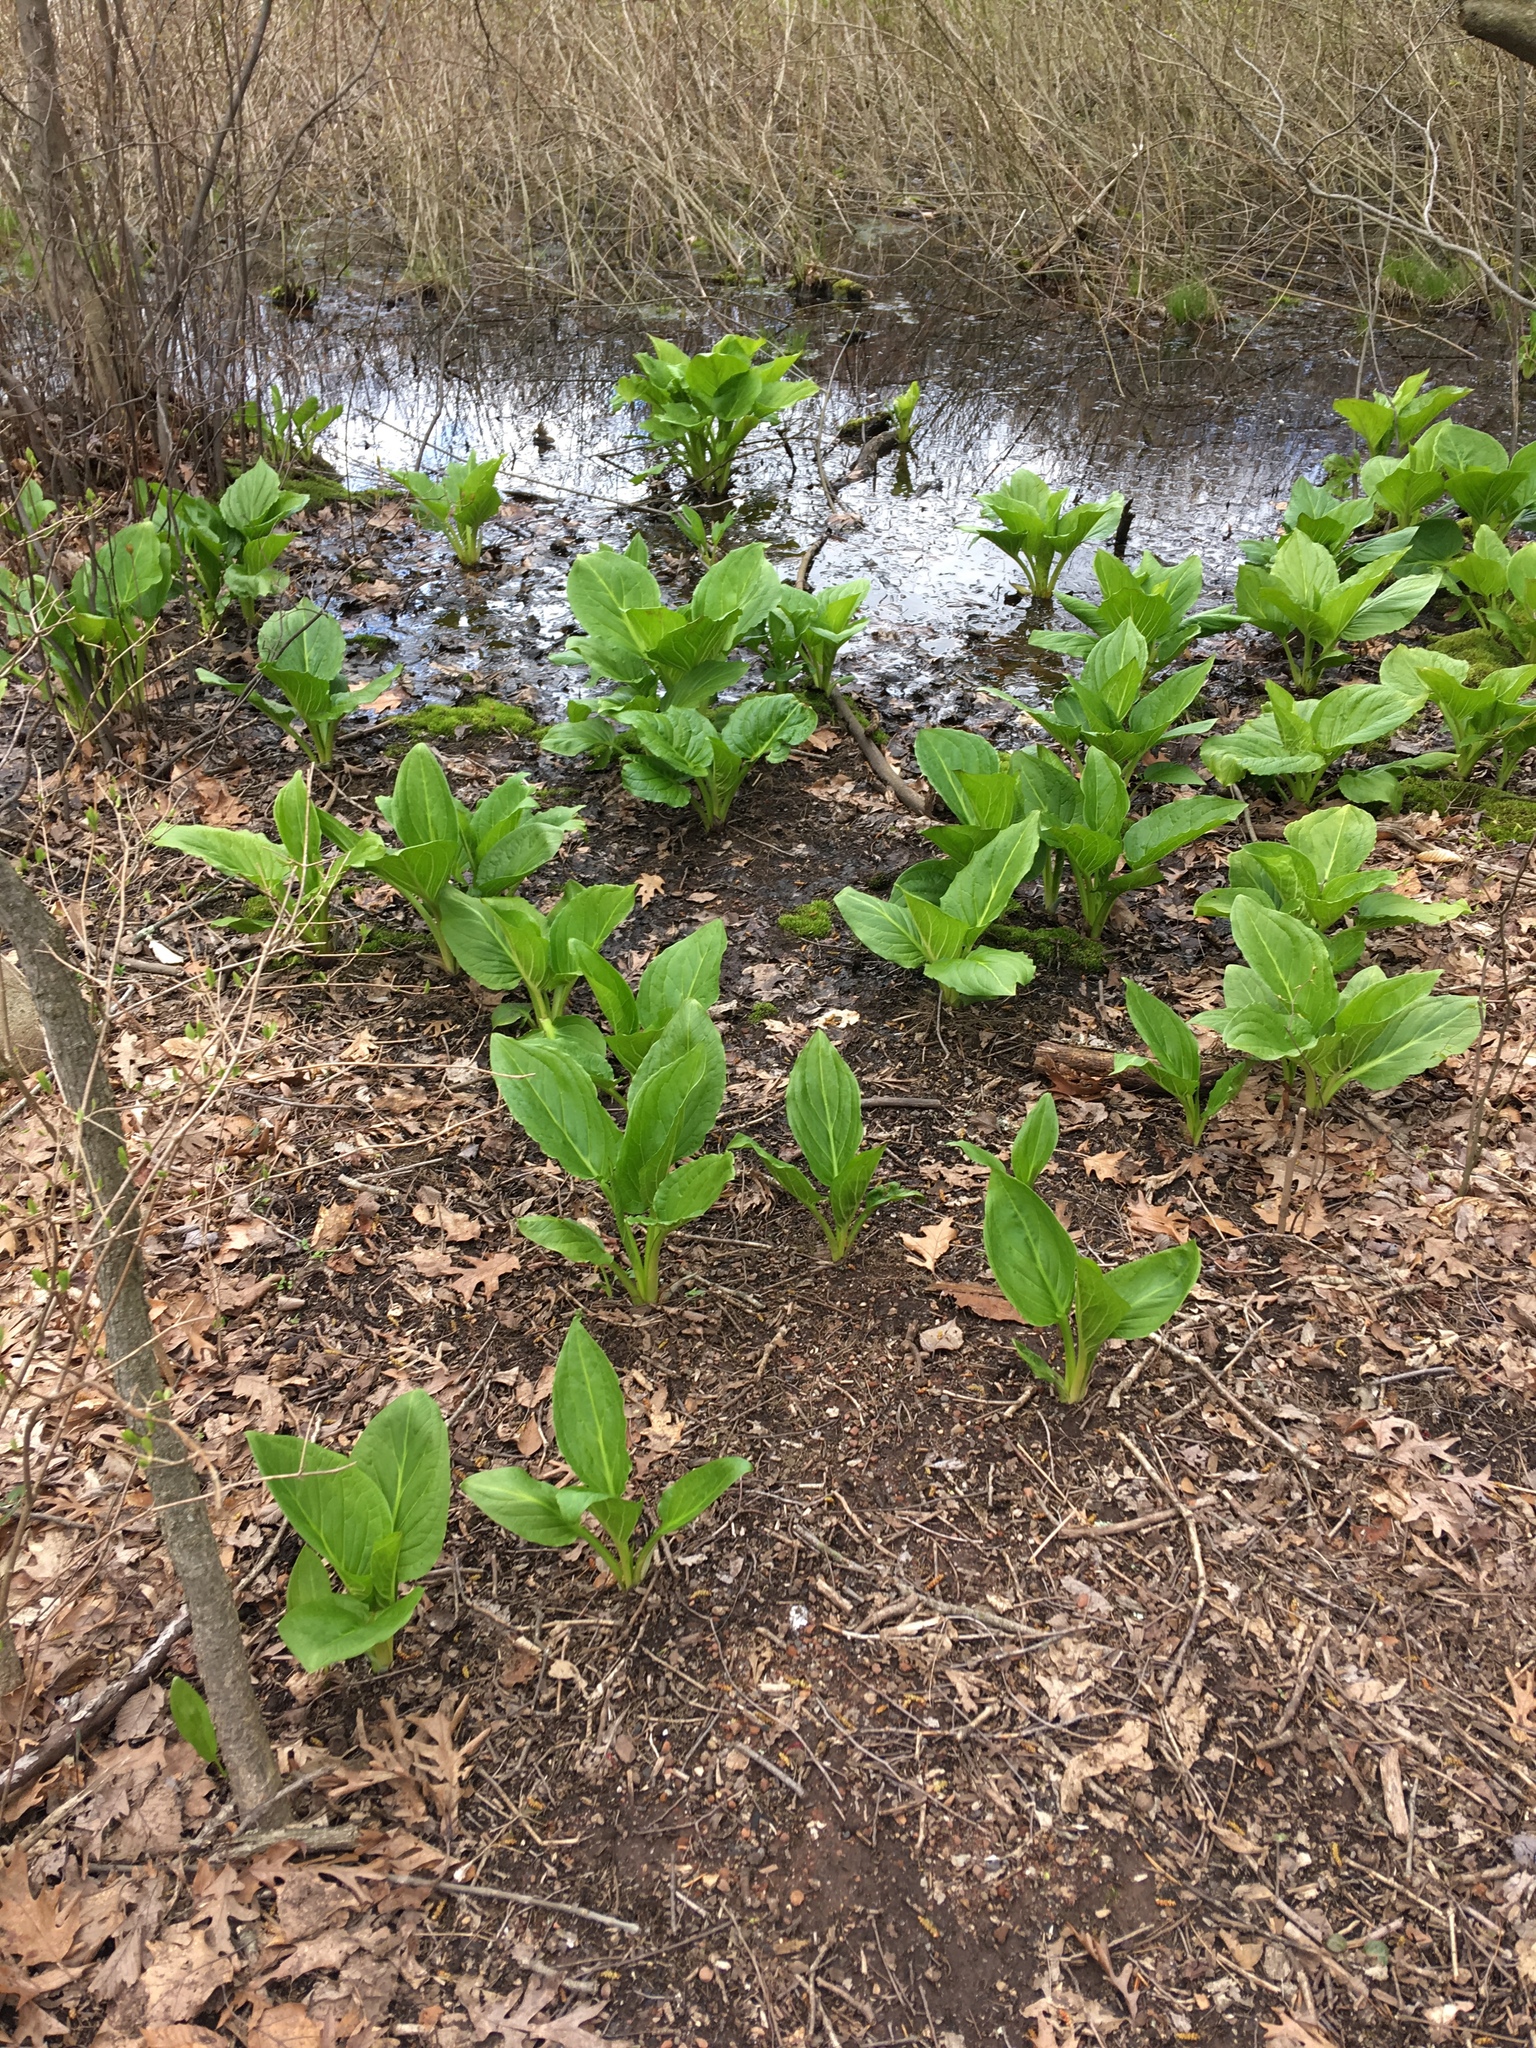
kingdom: Plantae
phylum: Tracheophyta
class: Liliopsida
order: Alismatales
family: Araceae
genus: Symplocarpus
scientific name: Symplocarpus foetidus
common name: Eastern skunk cabbage
